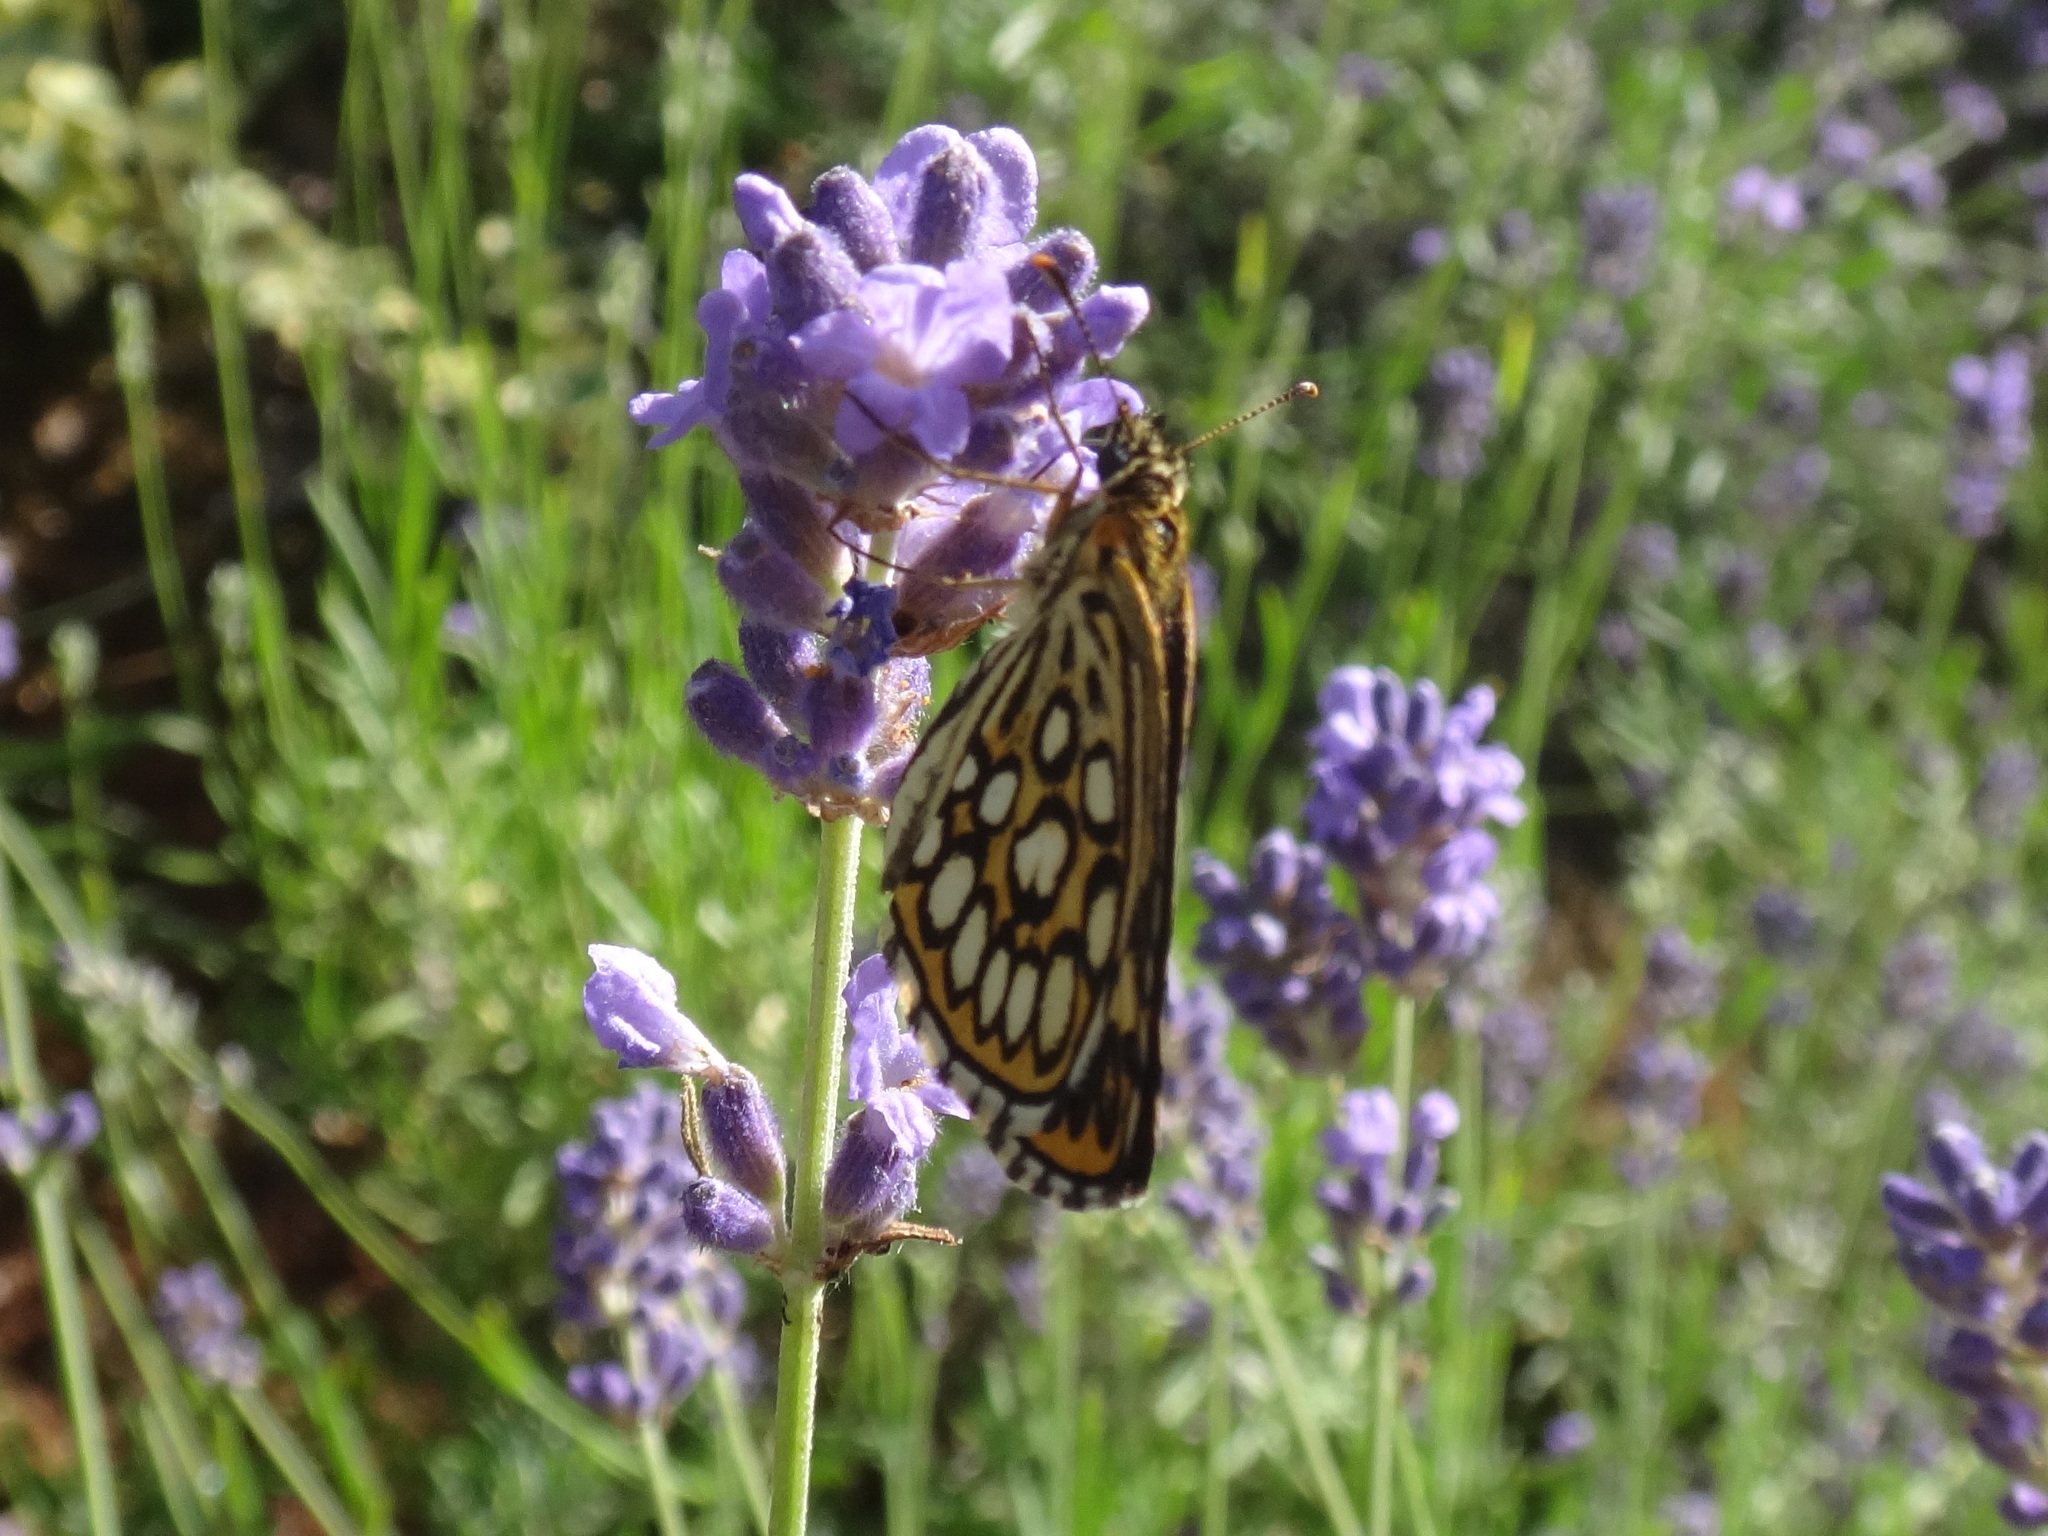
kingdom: Animalia
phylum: Arthropoda
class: Insecta
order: Lepidoptera
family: Hesperiidae
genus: Heteropterus
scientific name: Heteropterus morpheus
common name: Large chequered skipper
